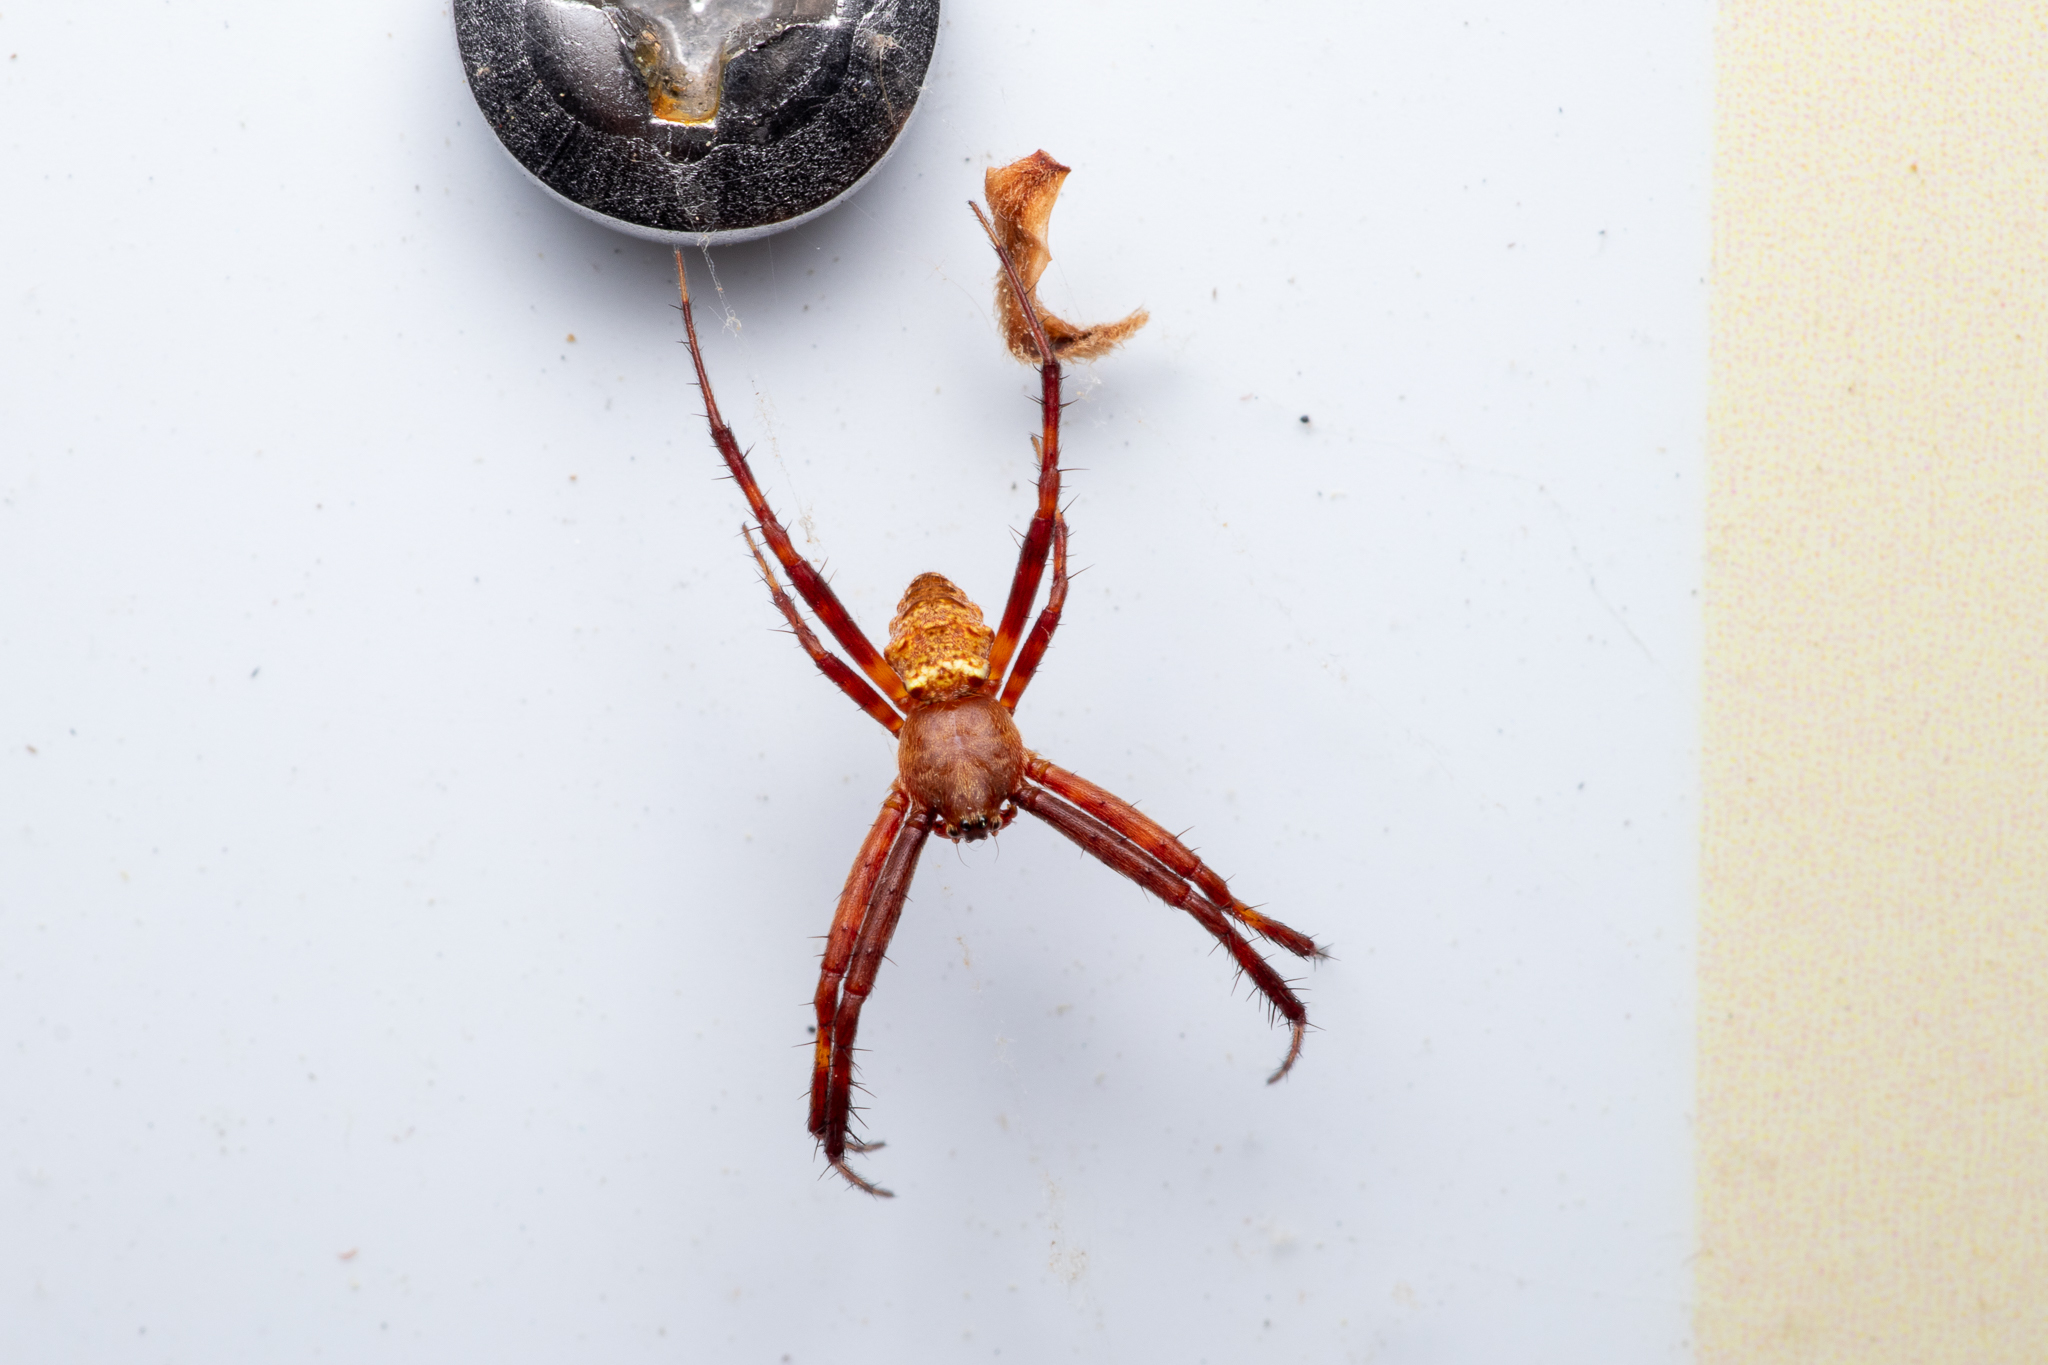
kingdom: Animalia
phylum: Arthropoda
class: Arachnida
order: Araneae
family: Araneidae
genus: Gea
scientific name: Gea heptagon
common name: Orb weavers
